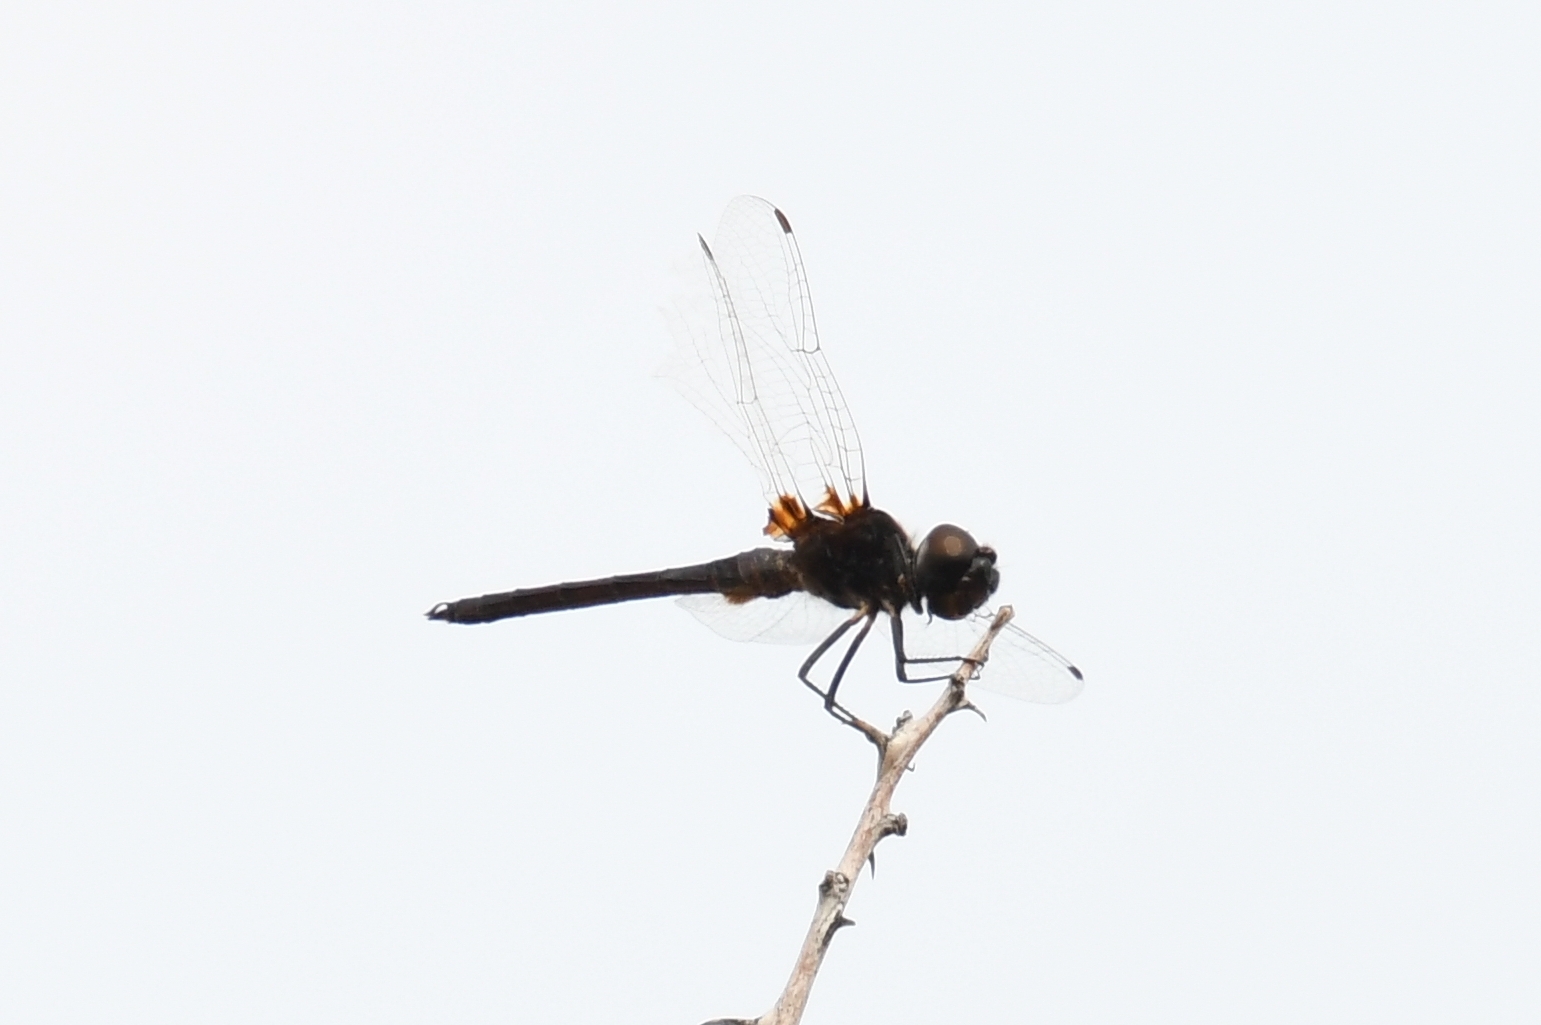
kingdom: Animalia
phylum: Arthropoda
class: Insecta
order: Odonata
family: Libellulidae
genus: Macrodiplax
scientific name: Macrodiplax balteata
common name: Marl pennant
